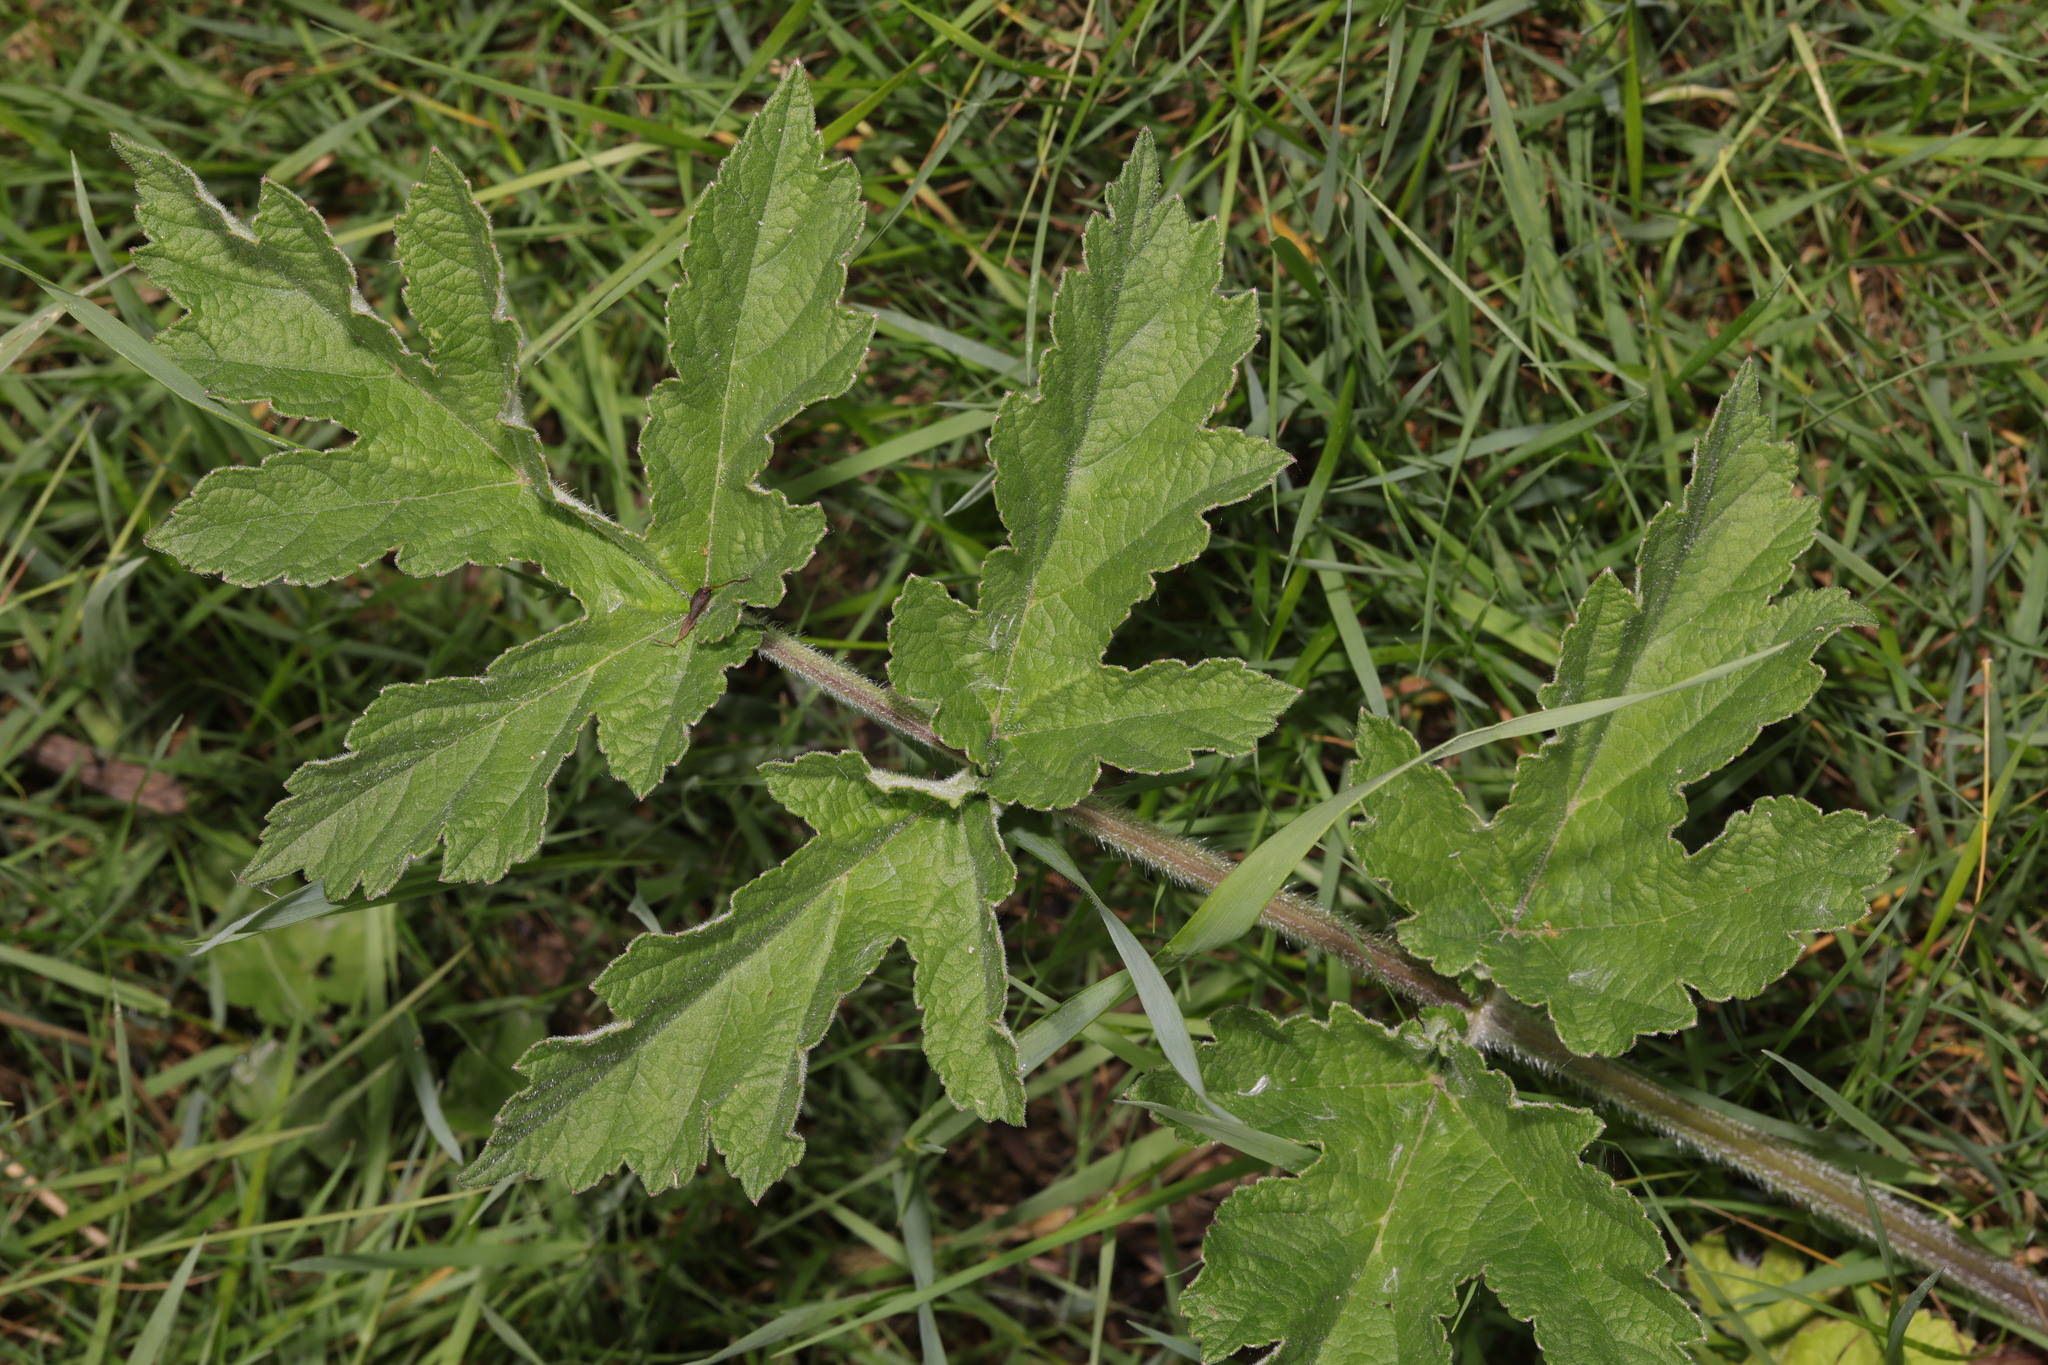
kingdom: Plantae
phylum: Tracheophyta
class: Magnoliopsida
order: Apiales
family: Apiaceae
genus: Heracleum
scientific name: Heracleum sphondylium
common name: Hogweed
